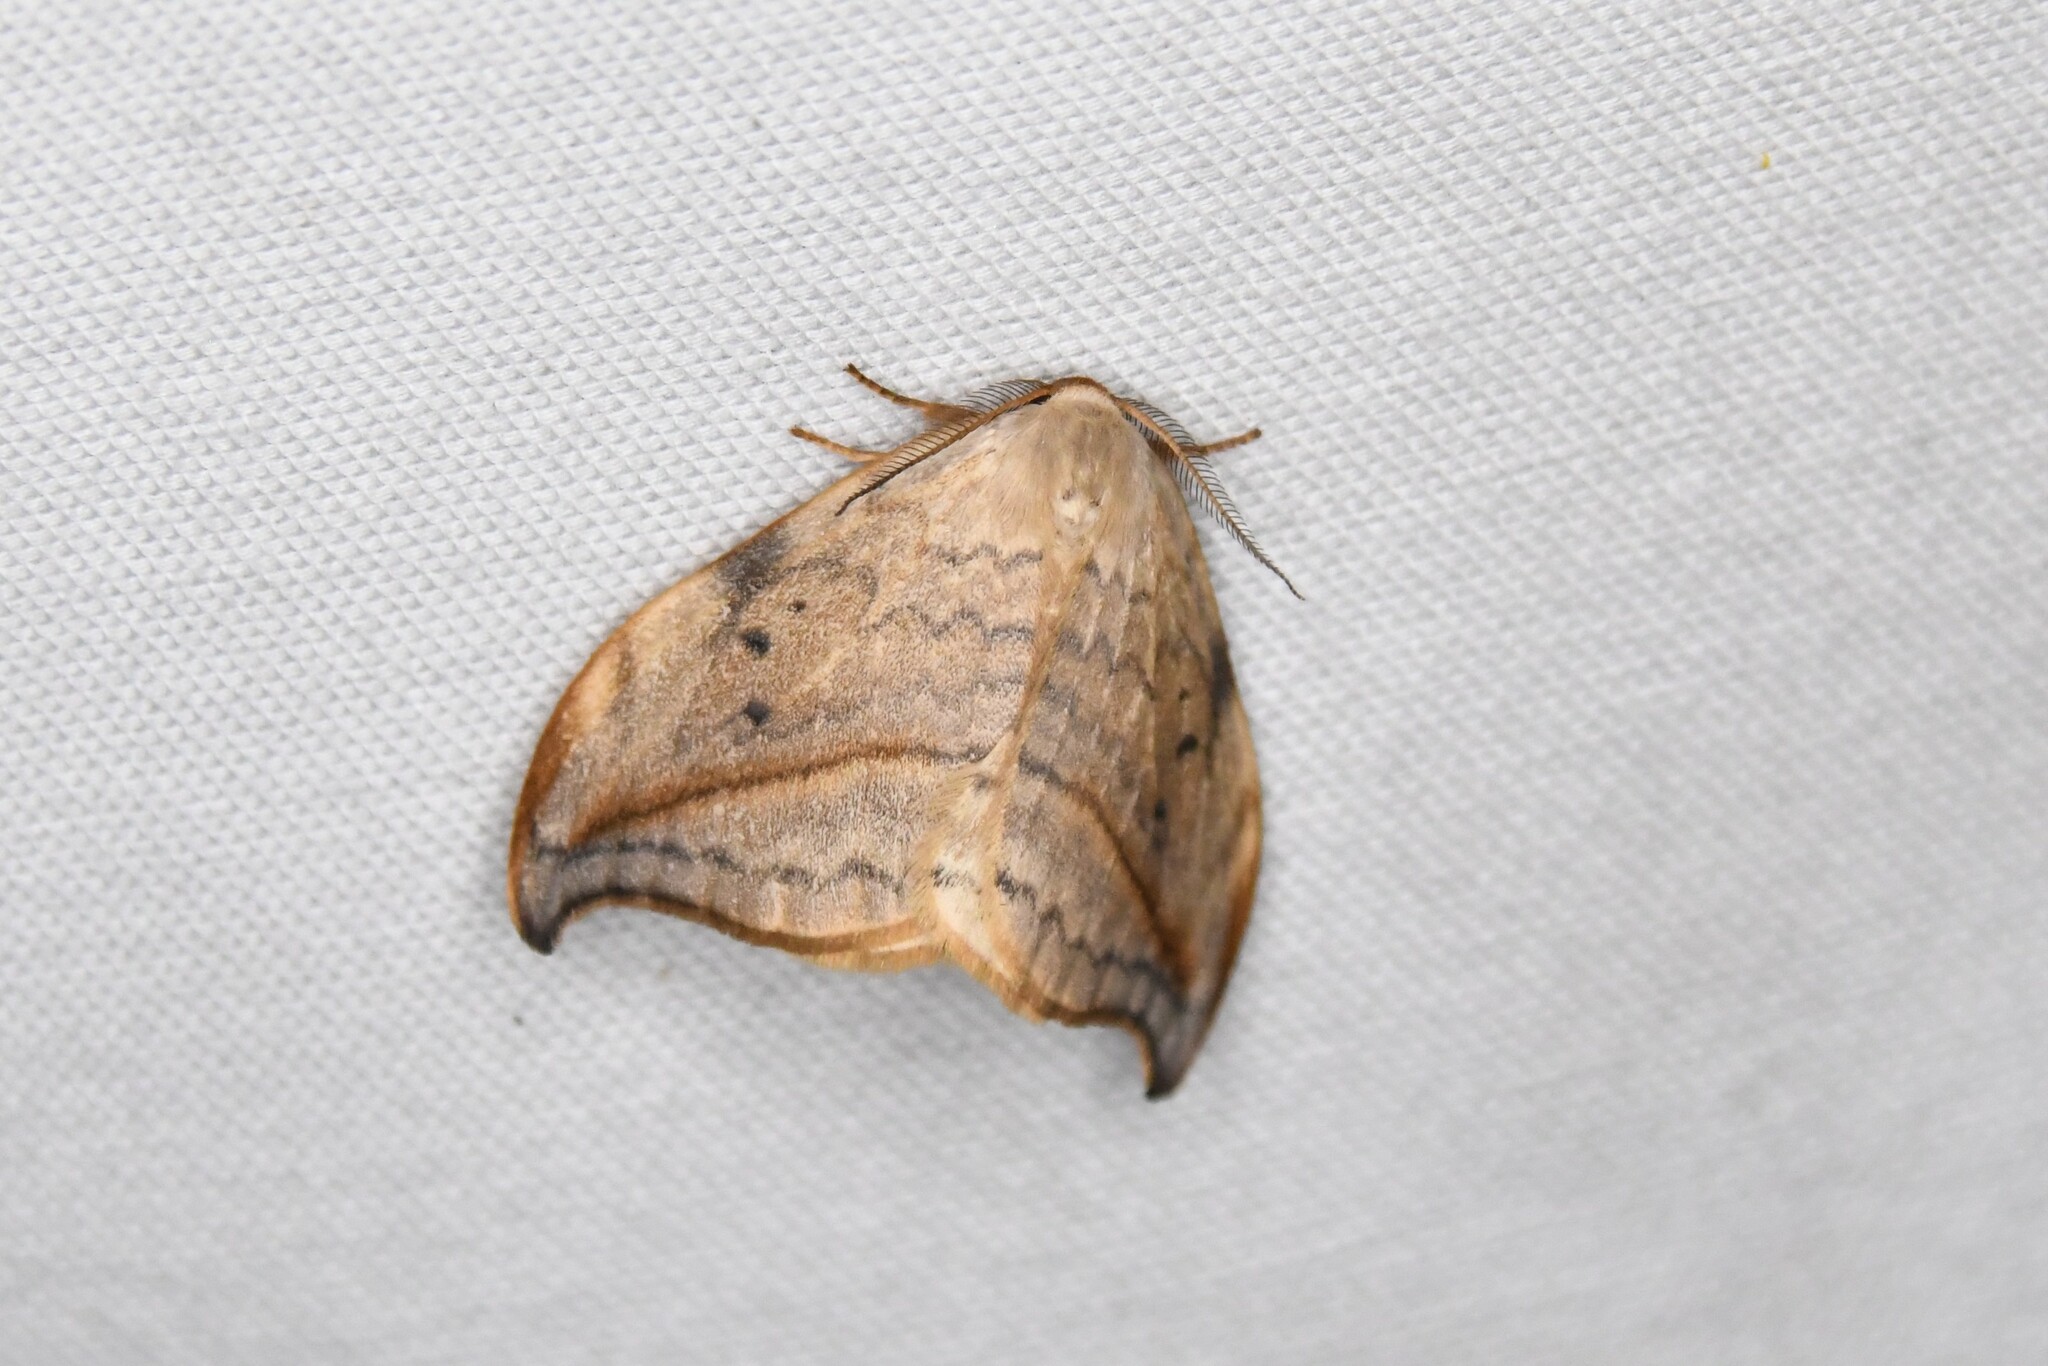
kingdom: Animalia
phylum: Arthropoda
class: Insecta
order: Lepidoptera
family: Drepanidae
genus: Drepana
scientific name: Drepana arcuata
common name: Arched hooktip moth
